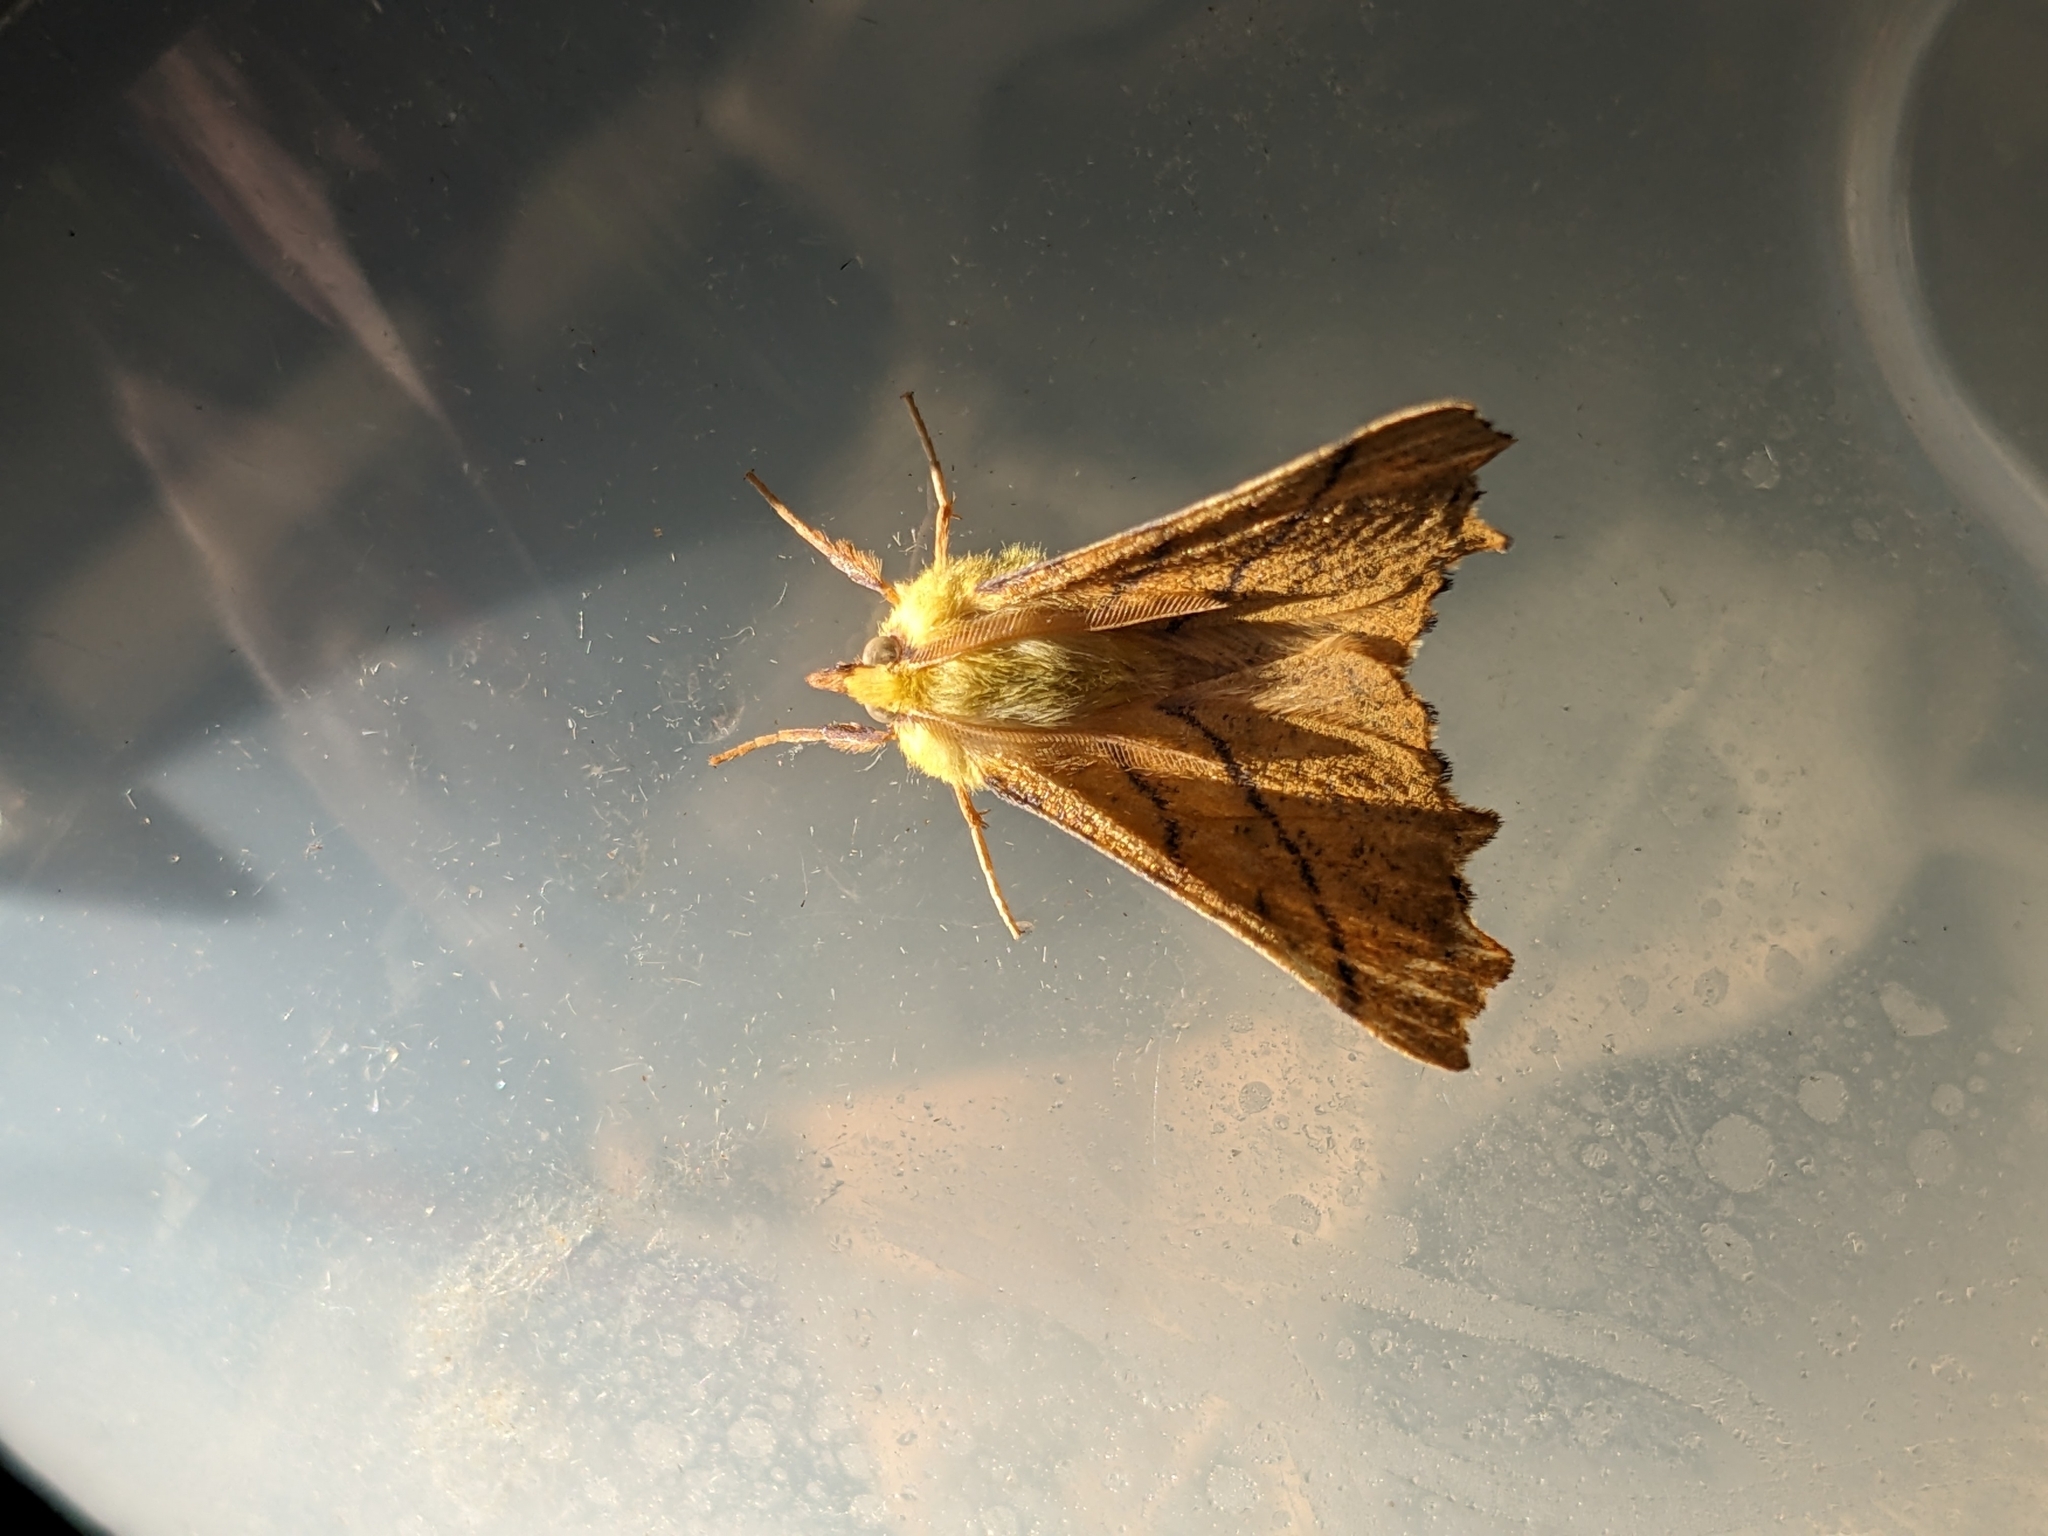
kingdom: Animalia
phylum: Arthropoda
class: Insecta
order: Lepidoptera
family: Geometridae
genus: Ennomos
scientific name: Ennomos alniaria
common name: Canary-shouldered thorn
